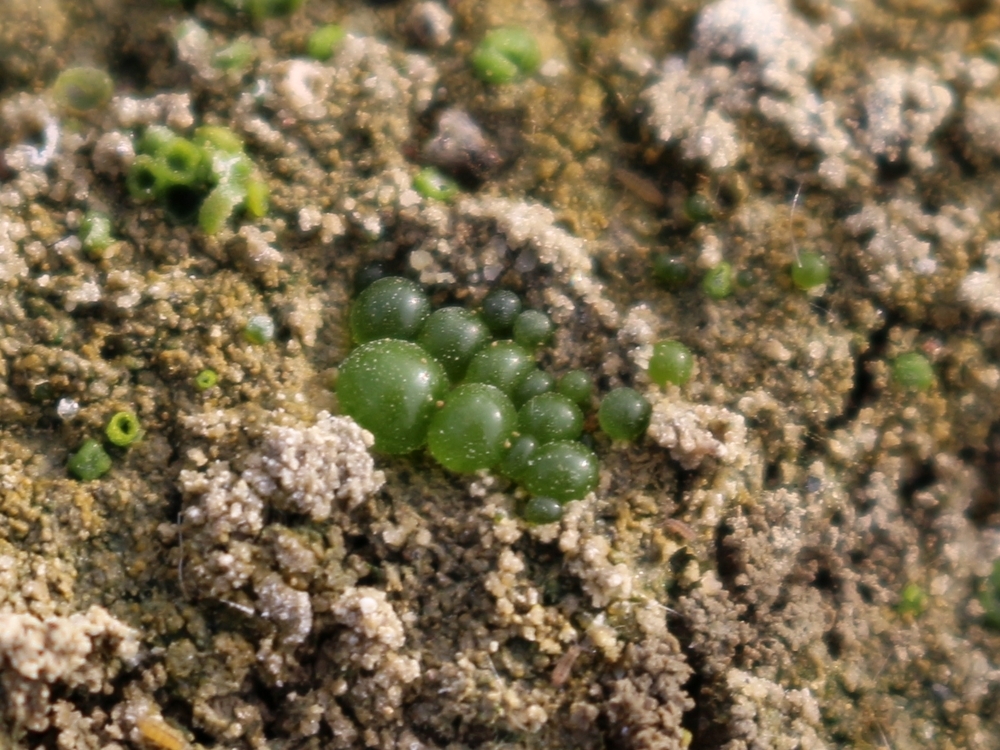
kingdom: Chromista
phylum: Ochrophyta
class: Xanthophyceae
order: Botrydiales
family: Botrydiaceae
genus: Botrydium
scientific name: Botrydium granulatum
